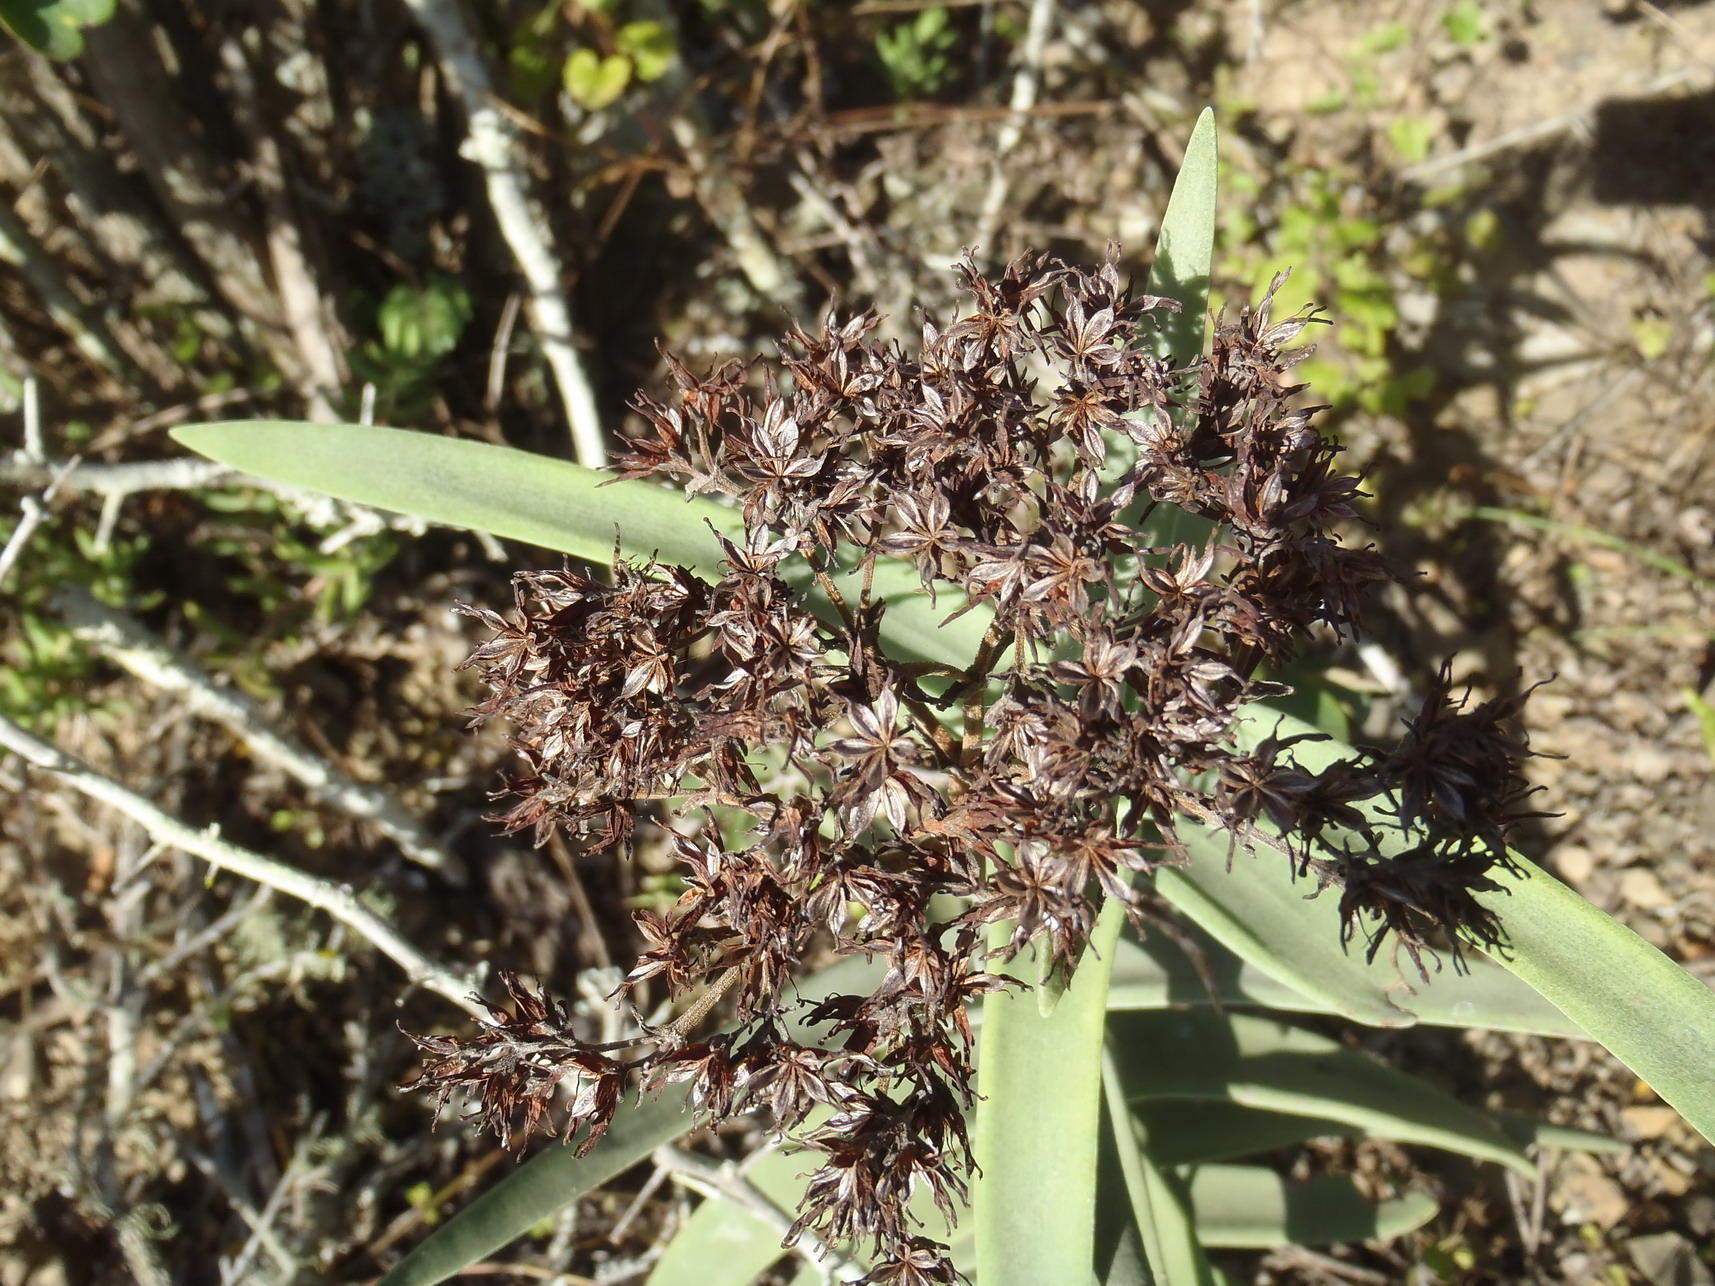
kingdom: Plantae
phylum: Tracheophyta
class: Magnoliopsida
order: Saxifragales
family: Crassulaceae
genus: Crassula
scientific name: Crassula perfoliata
